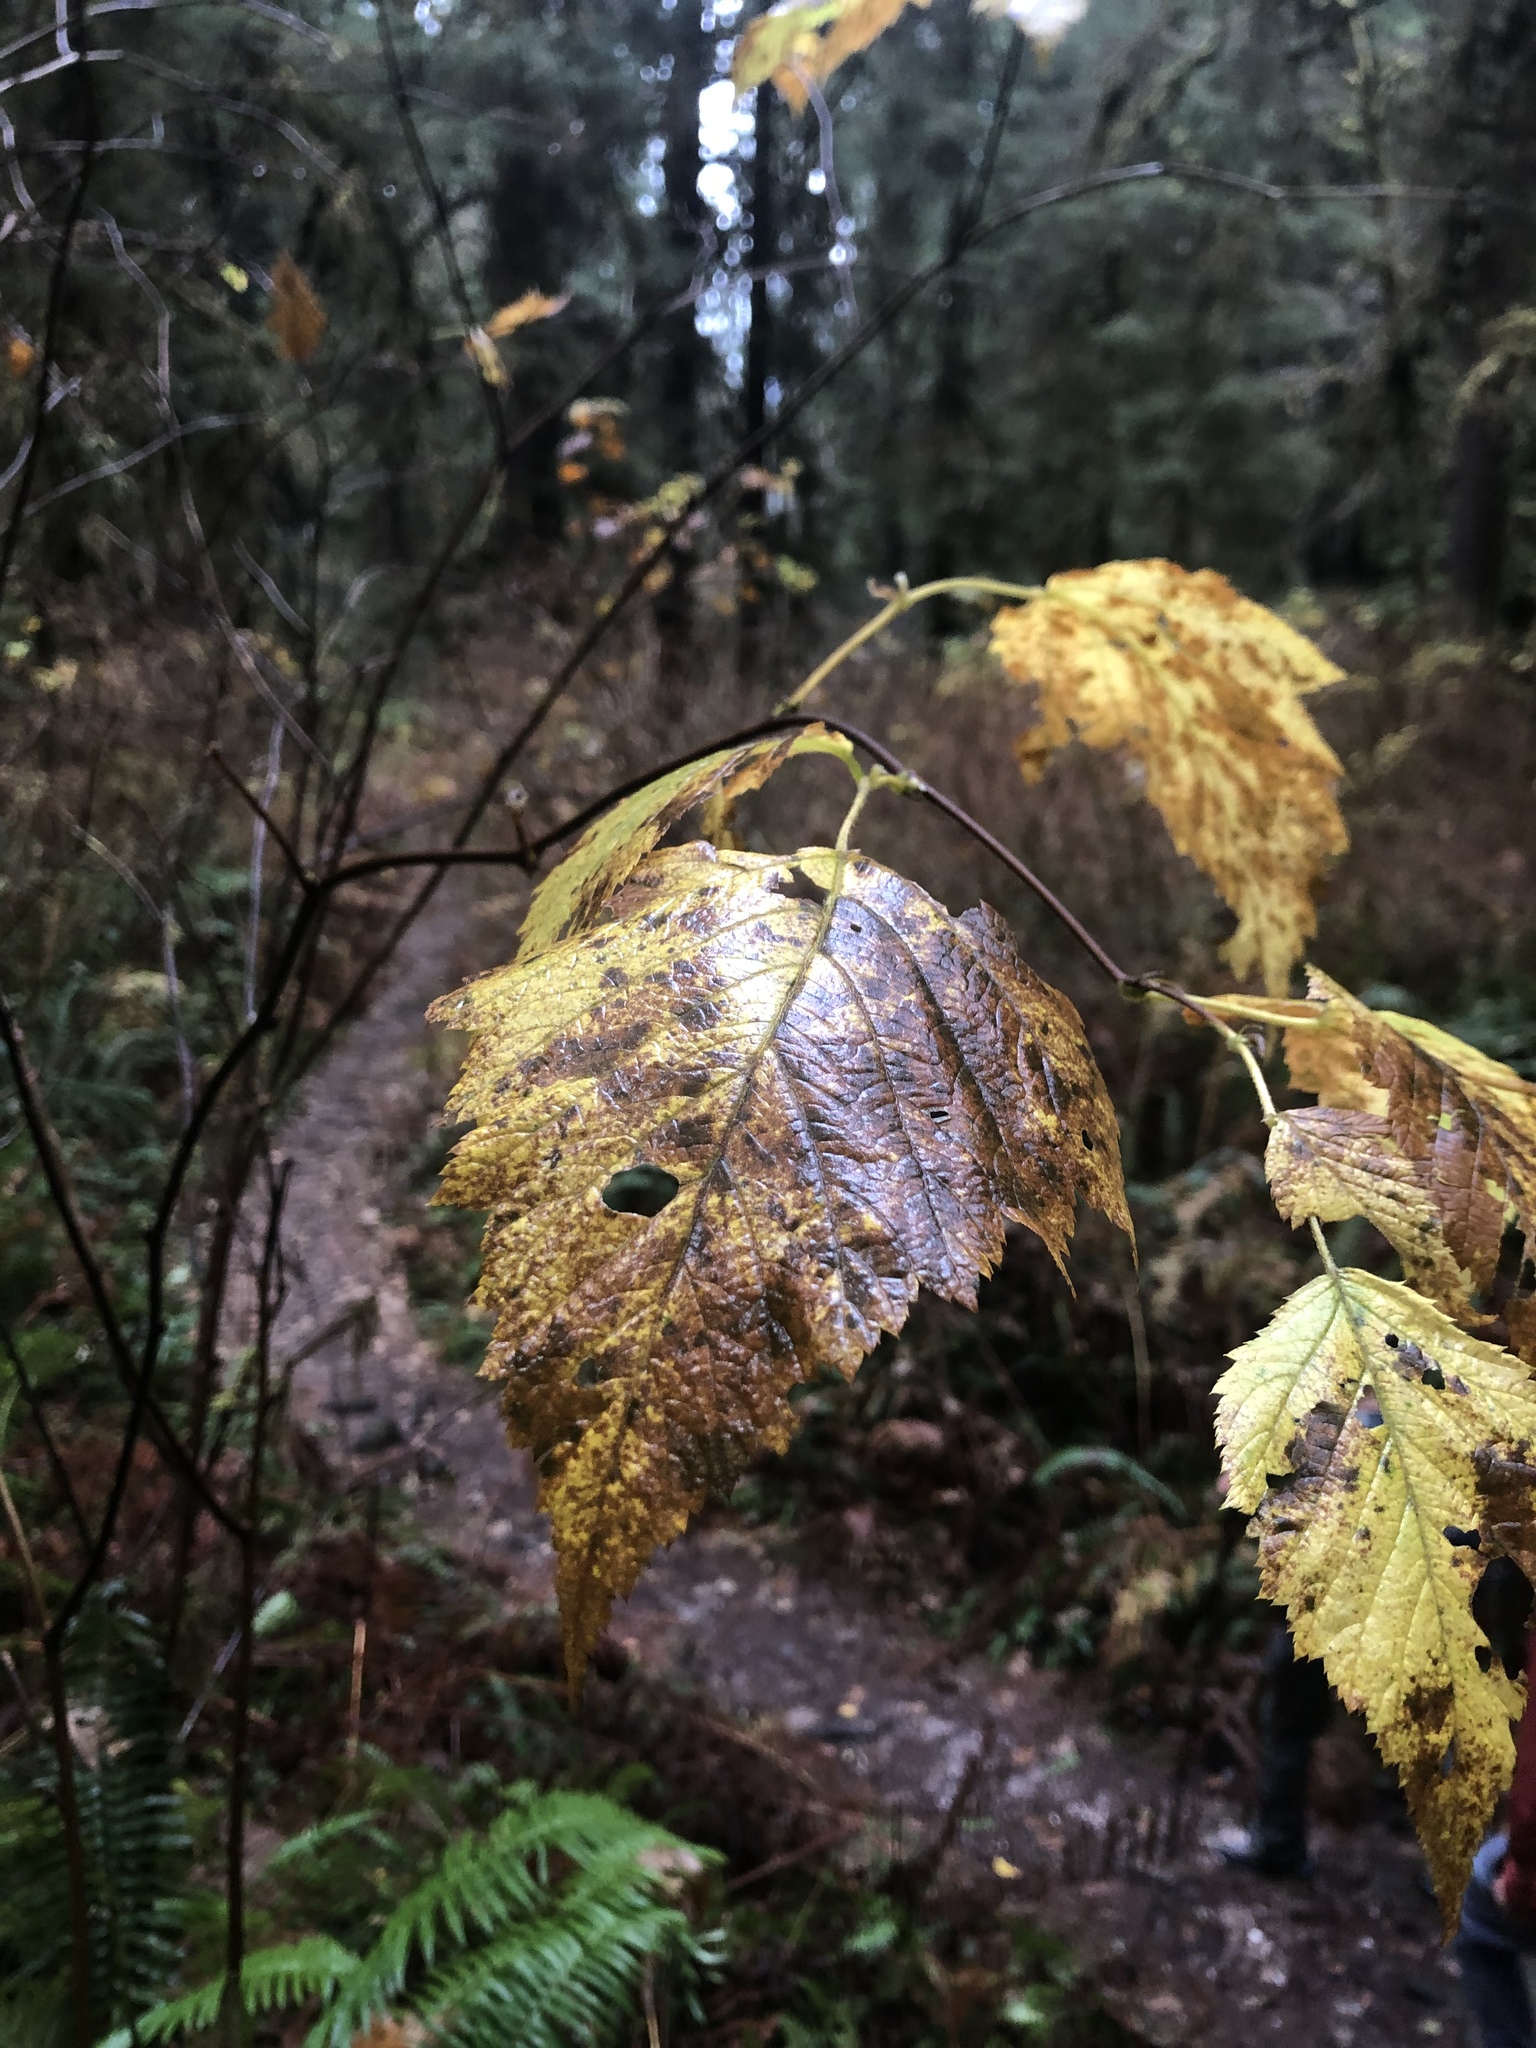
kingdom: Plantae
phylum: Tracheophyta
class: Magnoliopsida
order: Rosales
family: Rosaceae
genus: Rubus
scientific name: Rubus spectabilis
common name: Salmonberry
